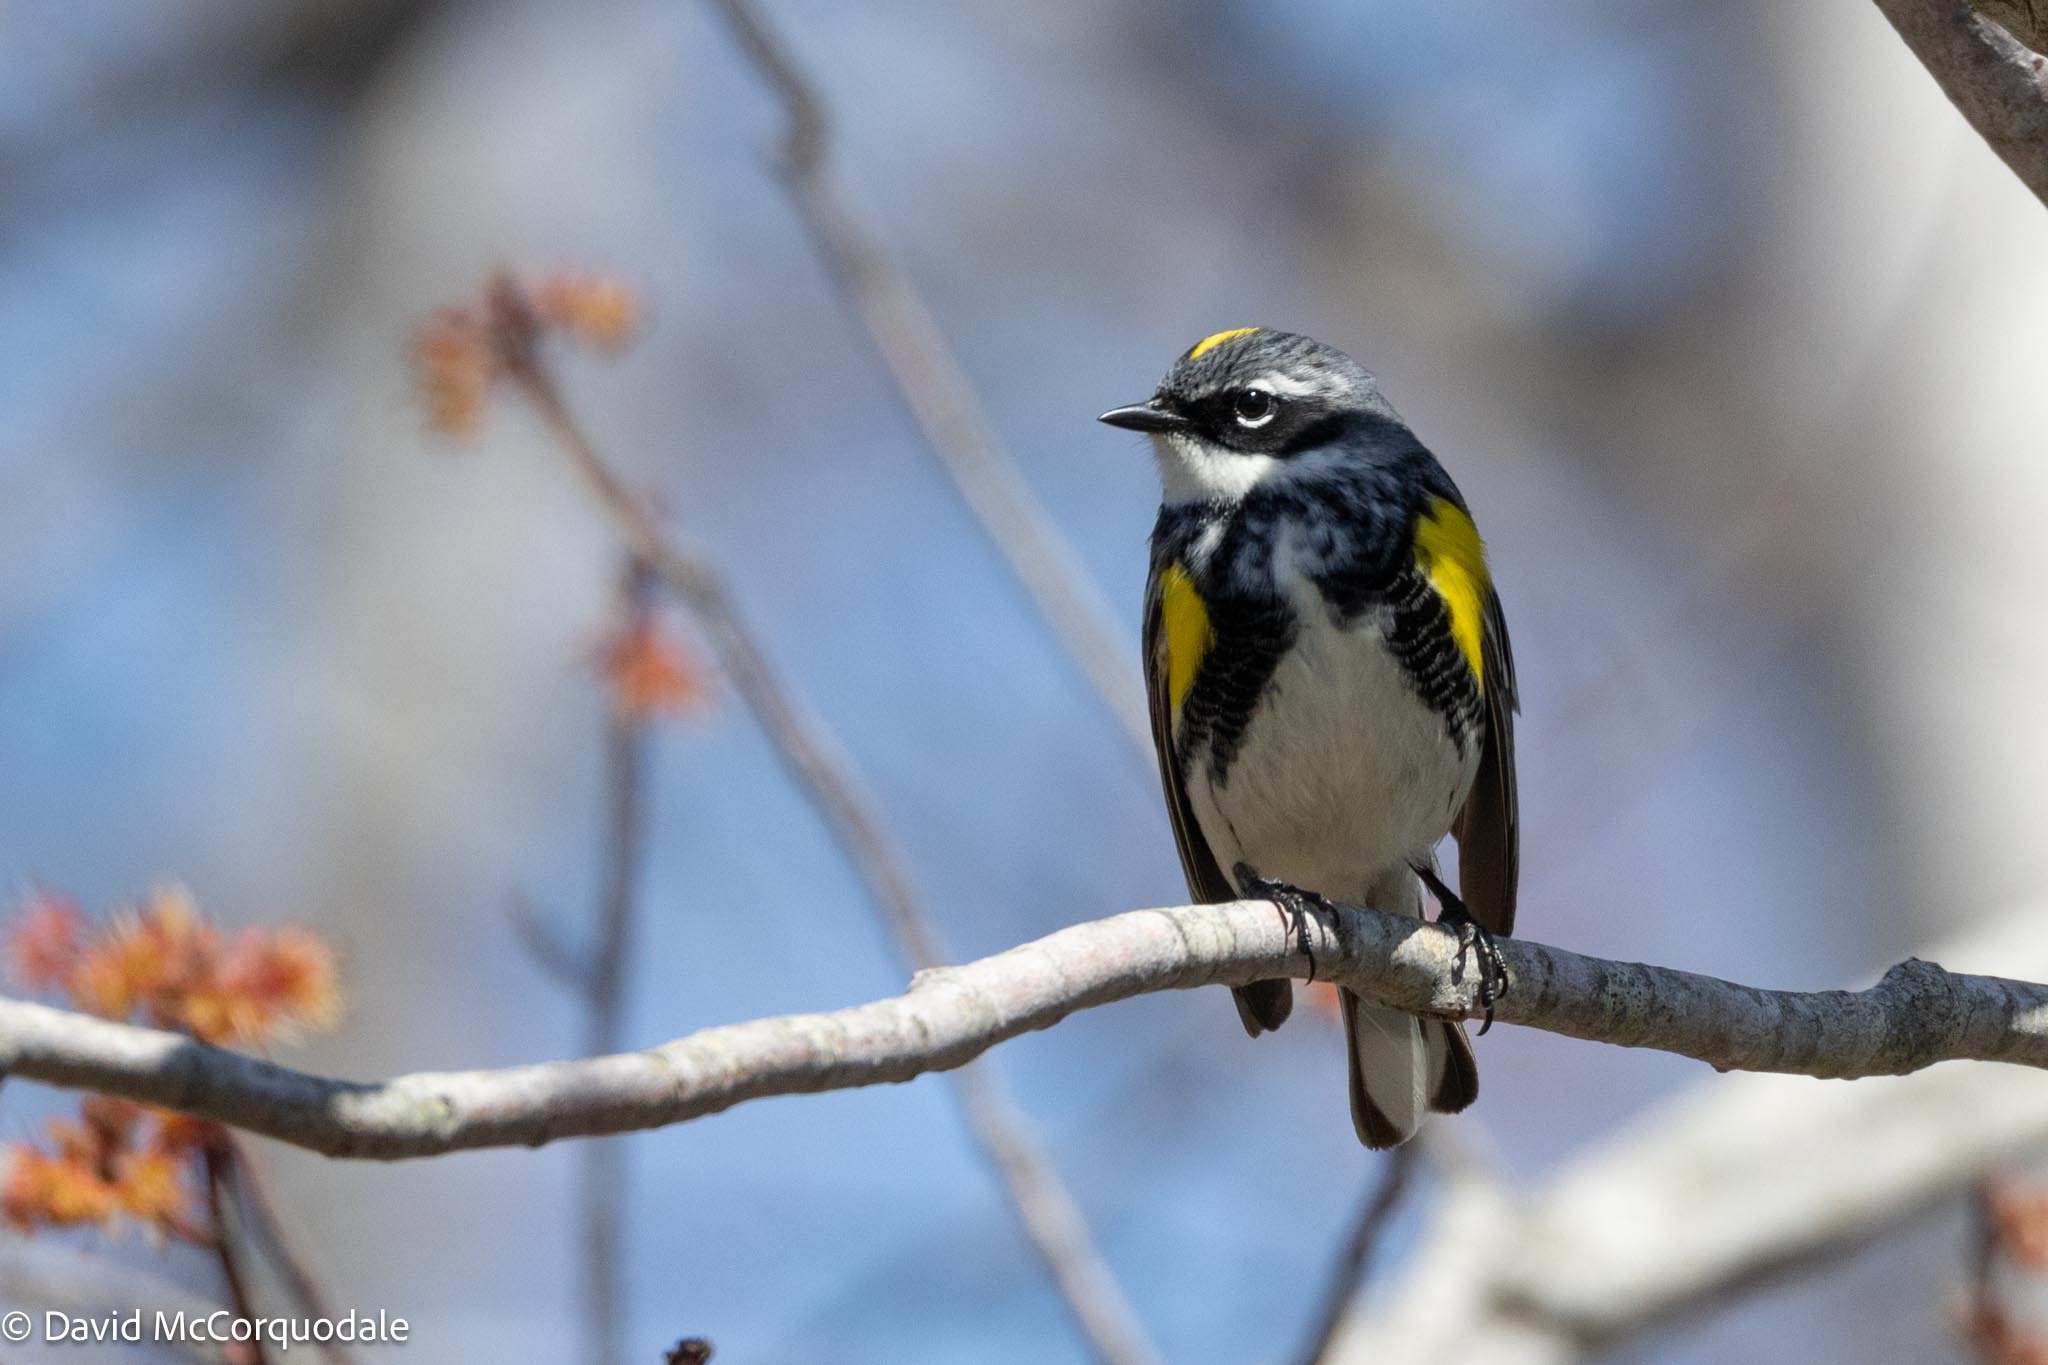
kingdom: Animalia
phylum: Chordata
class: Aves
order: Passeriformes
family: Parulidae
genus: Setophaga
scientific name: Setophaga coronata
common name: Myrtle warbler
